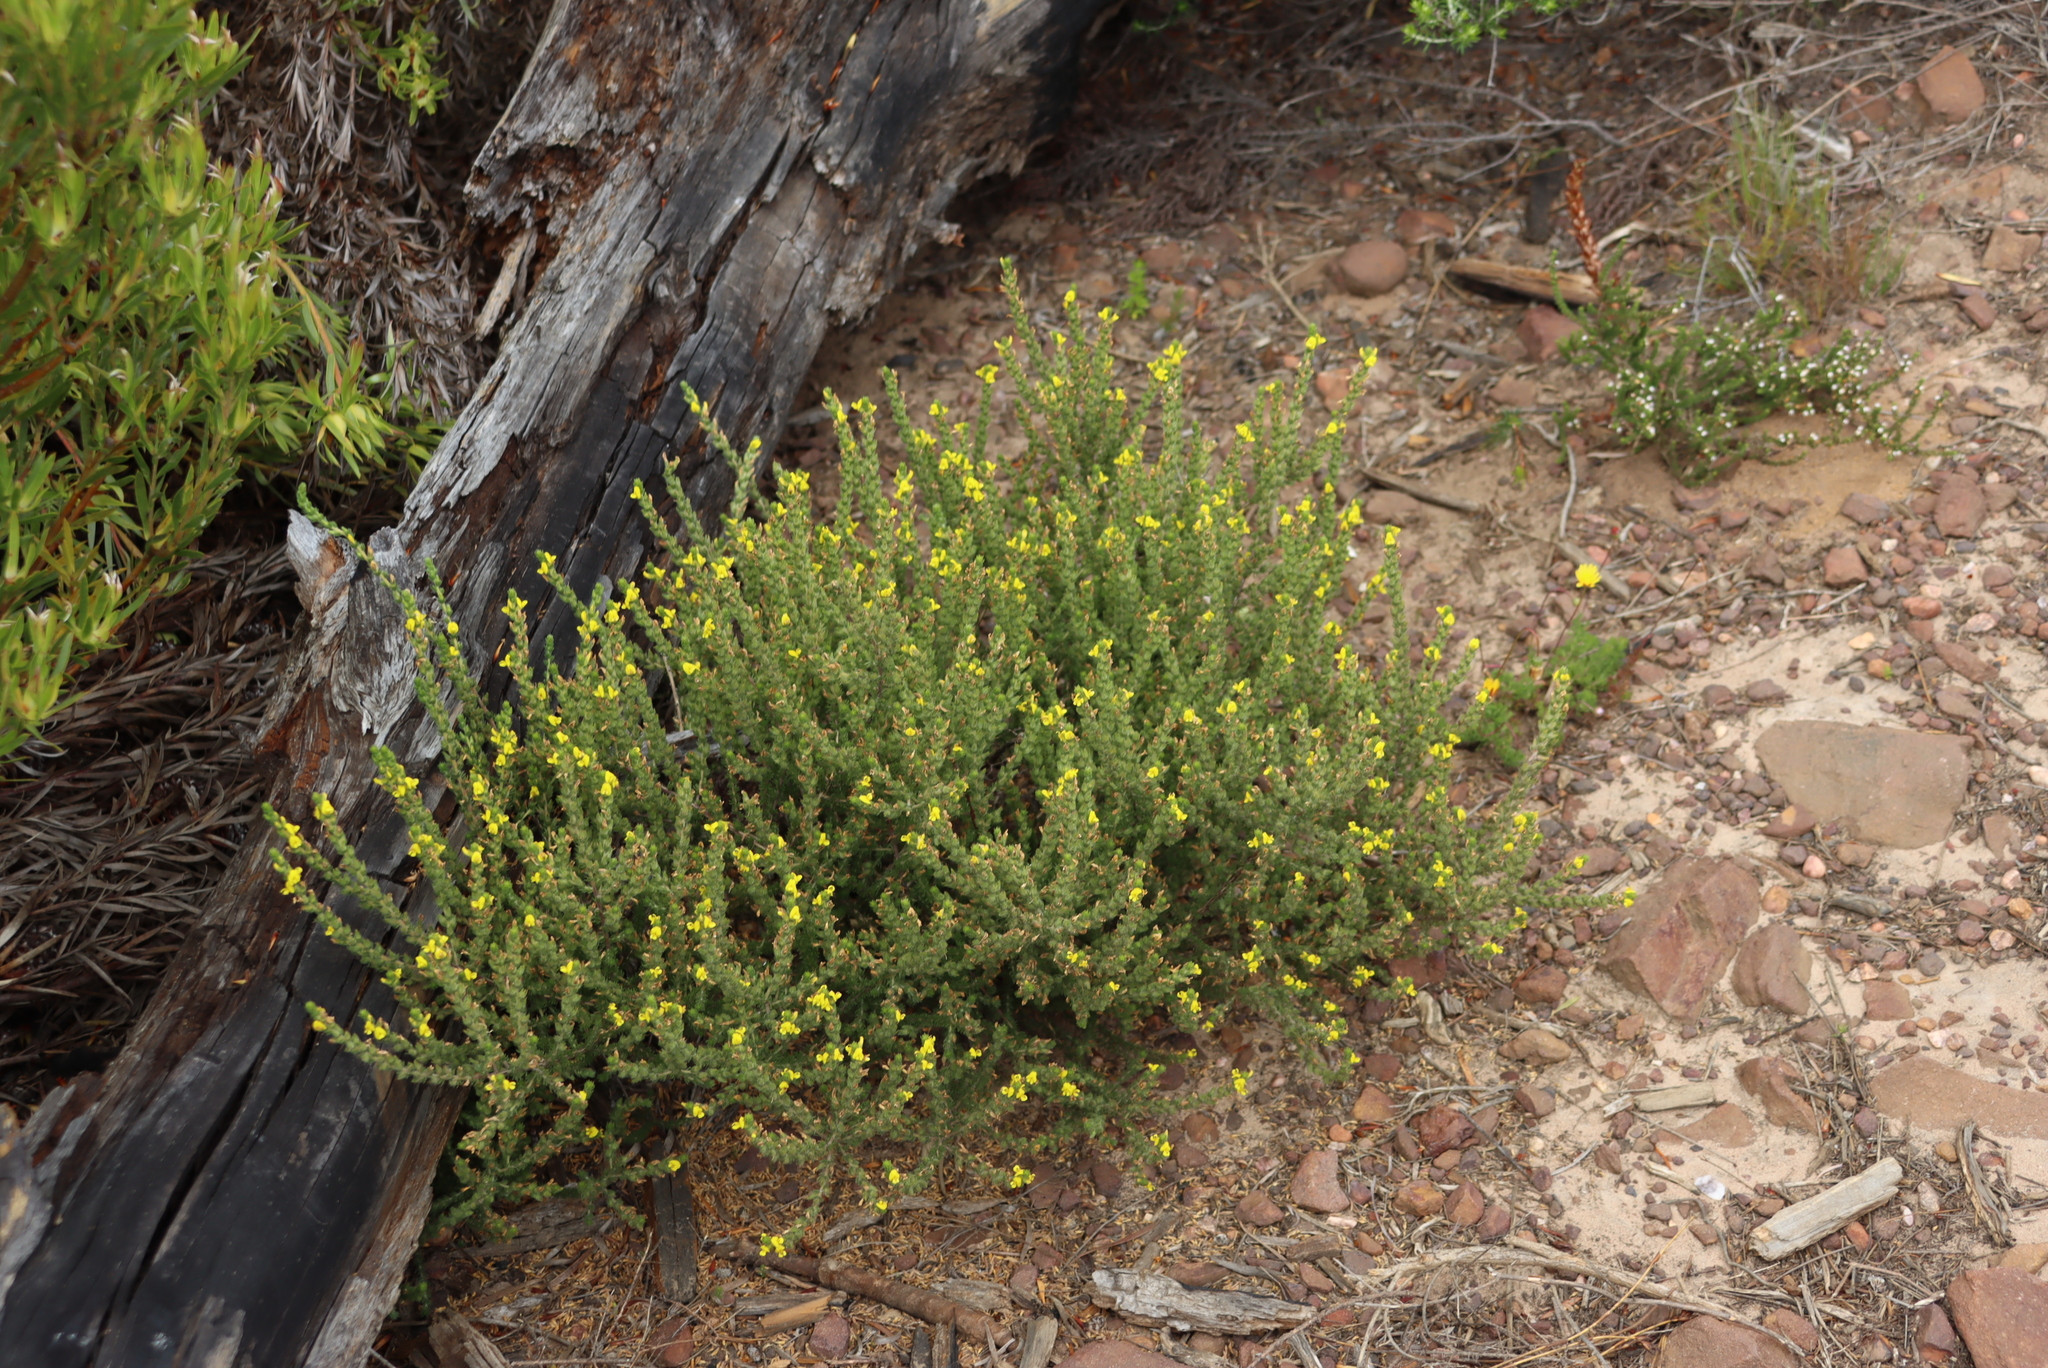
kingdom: Plantae
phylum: Tracheophyta
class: Magnoliopsida
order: Fabales
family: Fabaceae
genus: Aspalathus
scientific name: Aspalathus ericifolia
